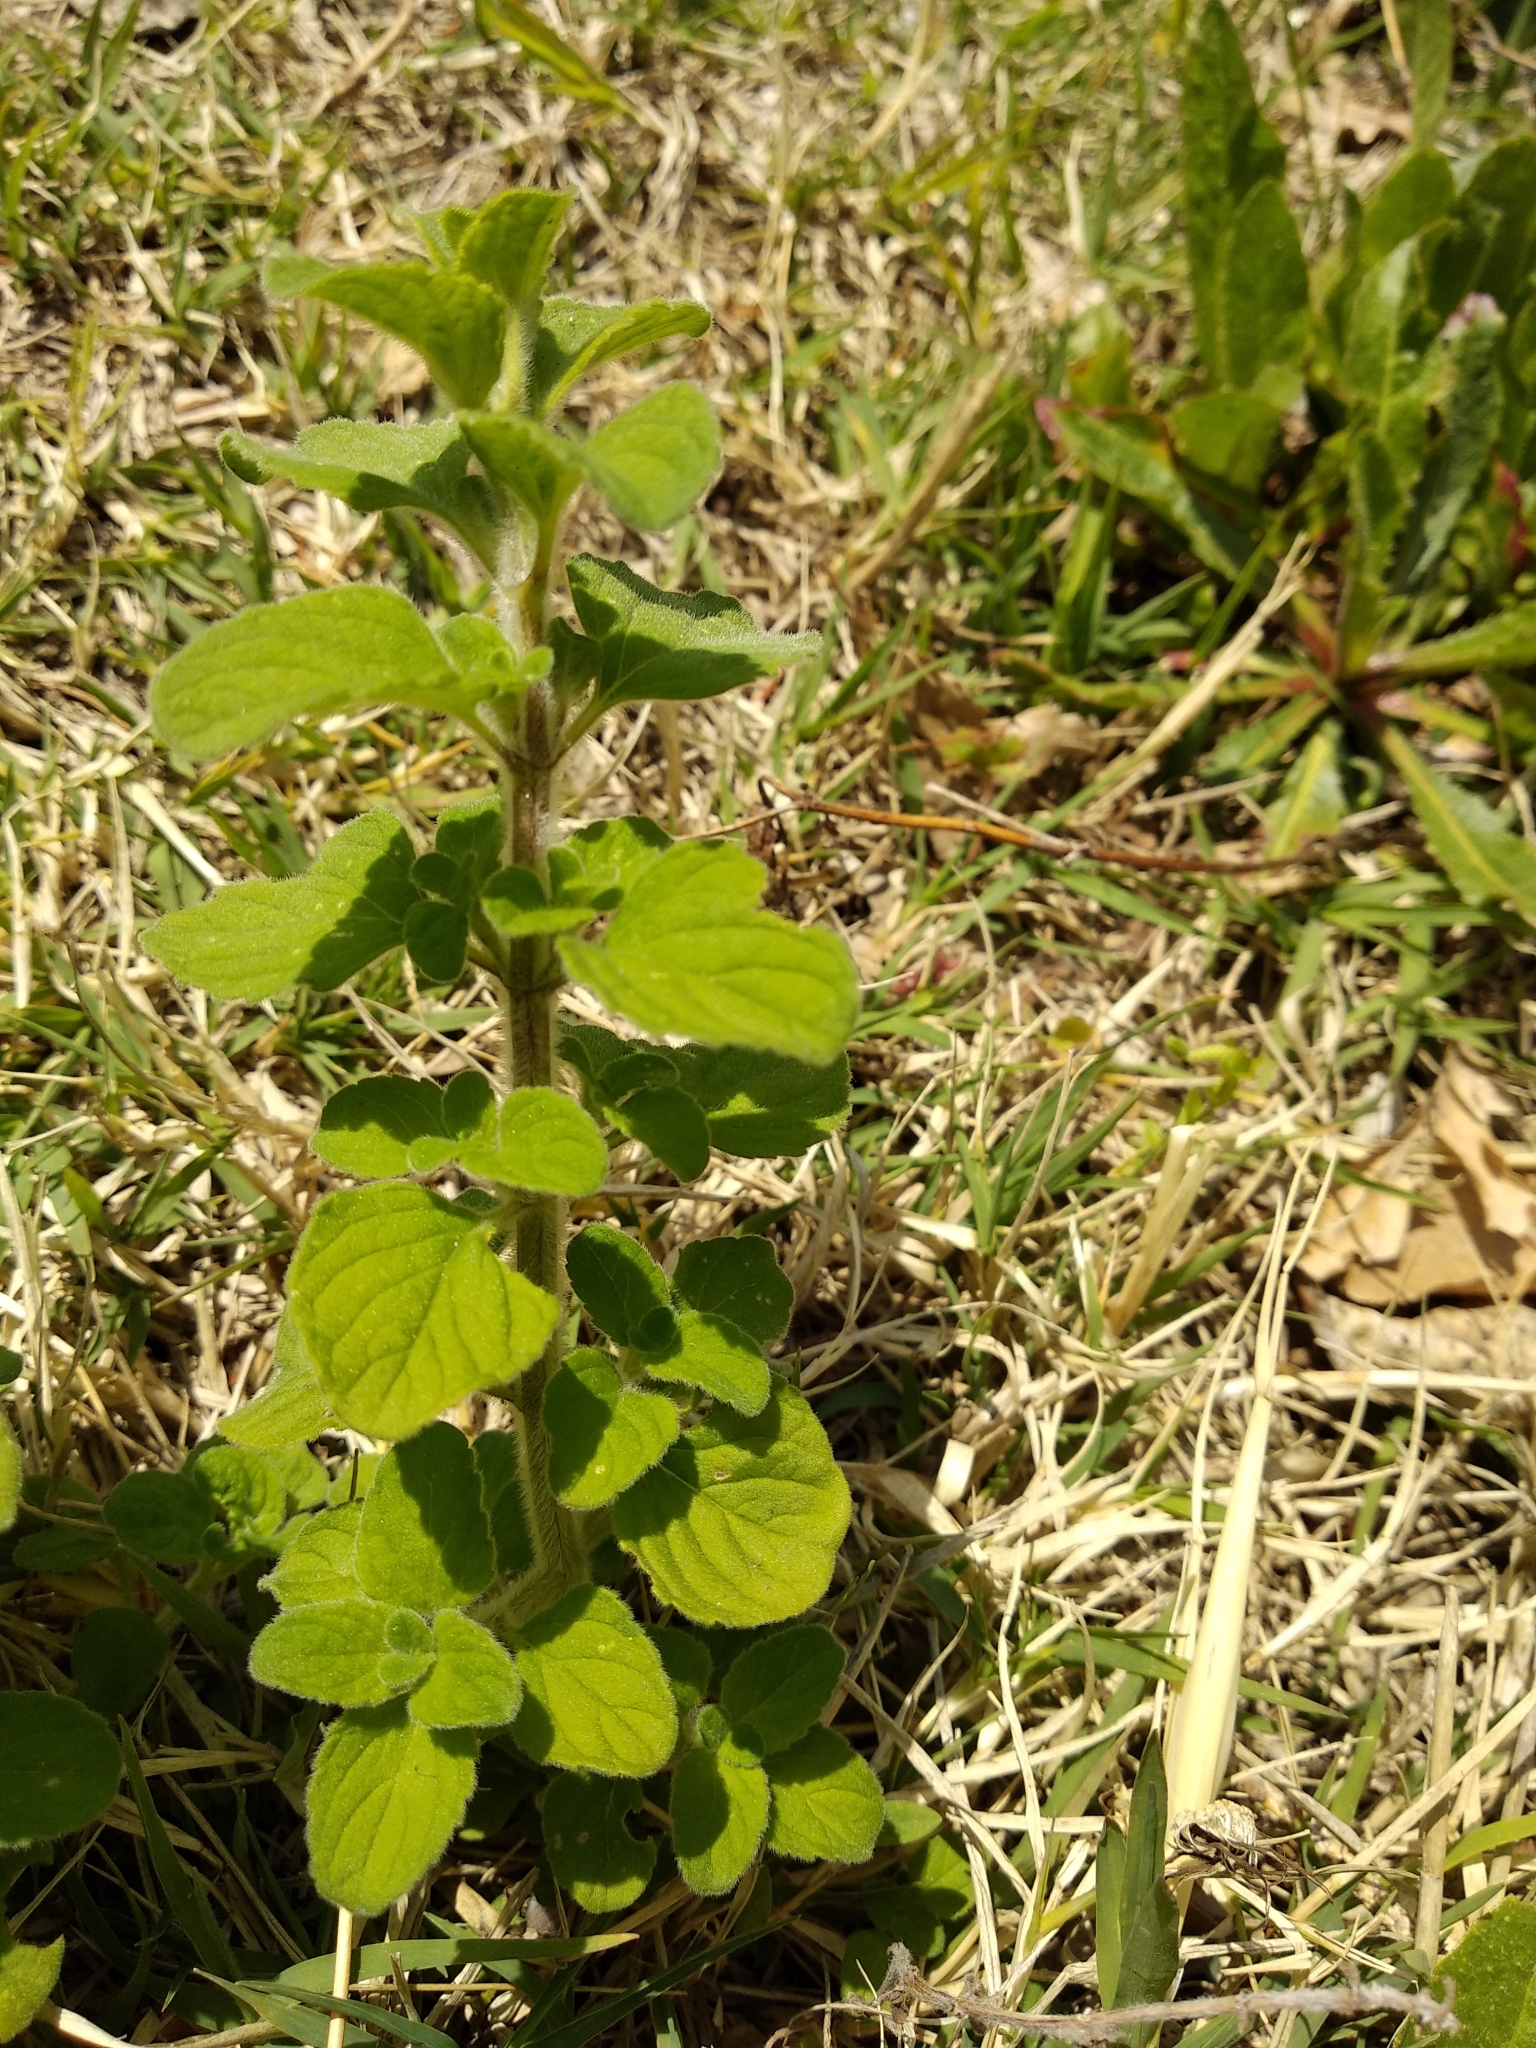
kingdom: Plantae
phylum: Tracheophyta
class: Magnoliopsida
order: Lamiales
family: Lamiaceae
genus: Clinopodium
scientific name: Clinopodium nepeta
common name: Lesser calamint
